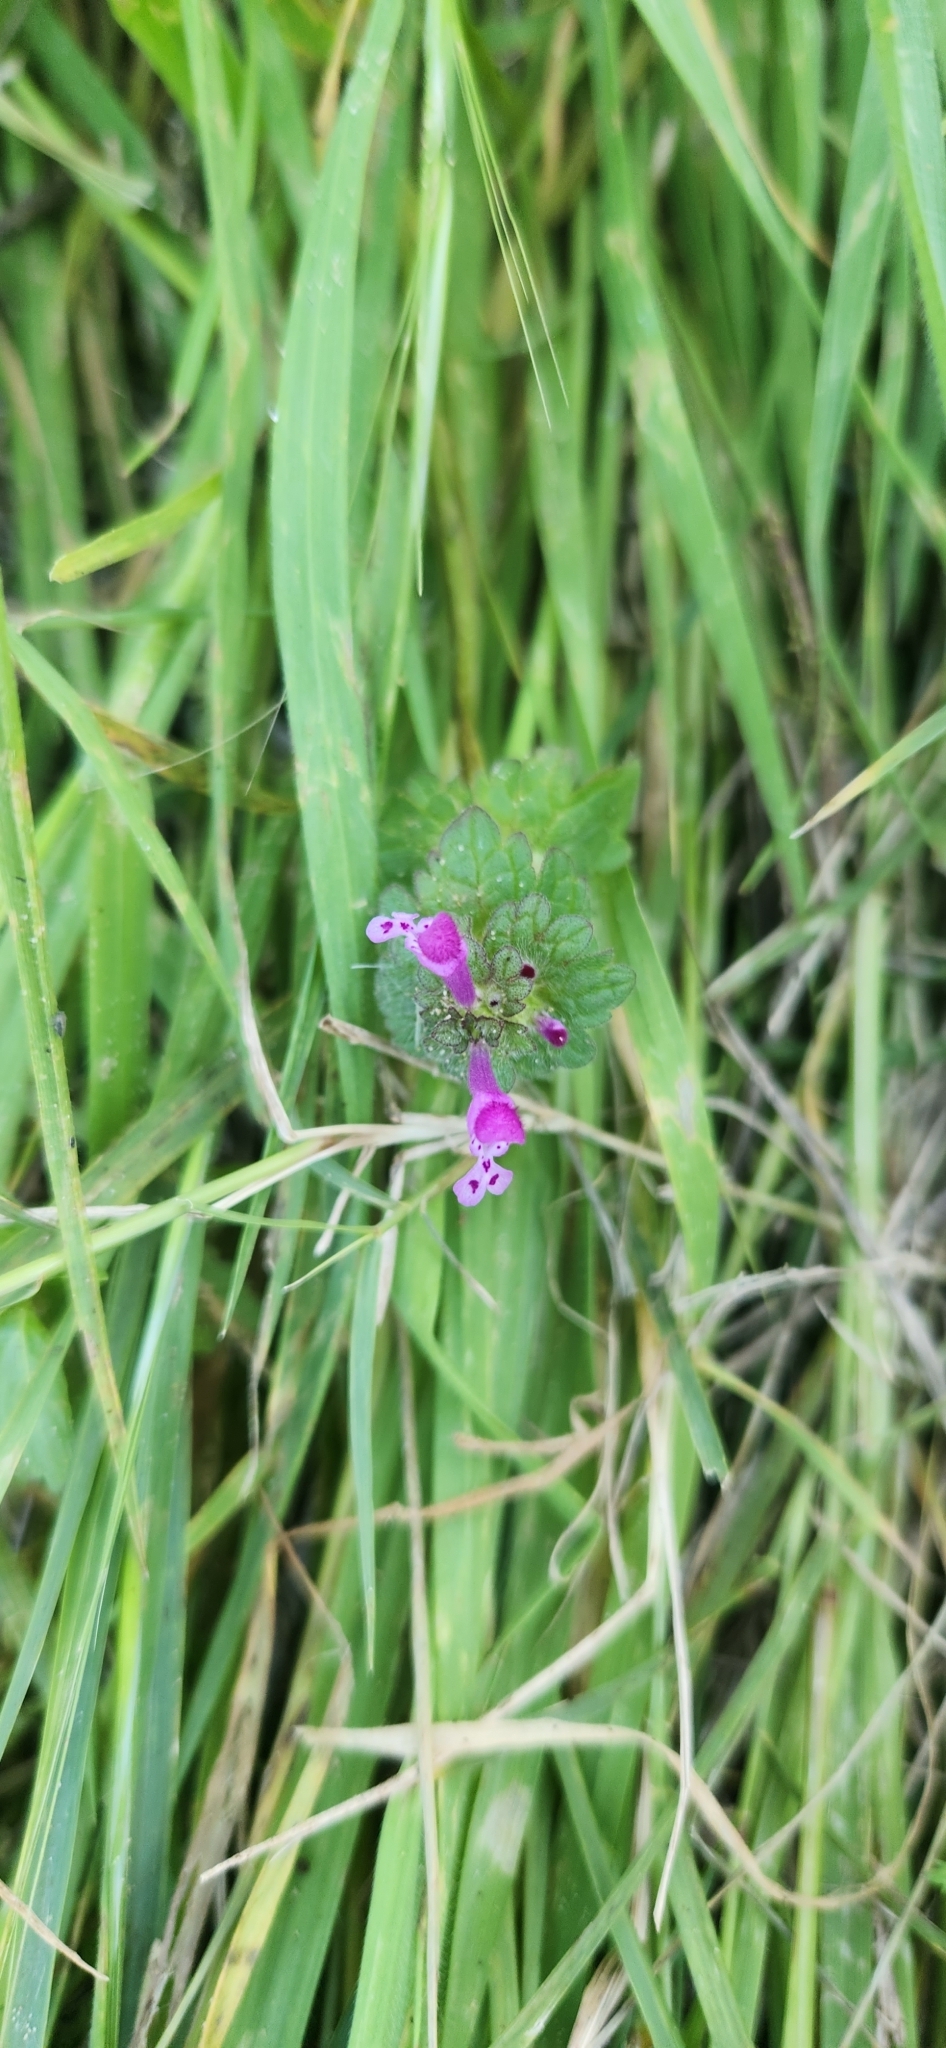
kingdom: Plantae
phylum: Tracheophyta
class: Magnoliopsida
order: Lamiales
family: Lamiaceae
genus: Lamium
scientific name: Lamium amplexicaule
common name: Henbit dead-nettle
